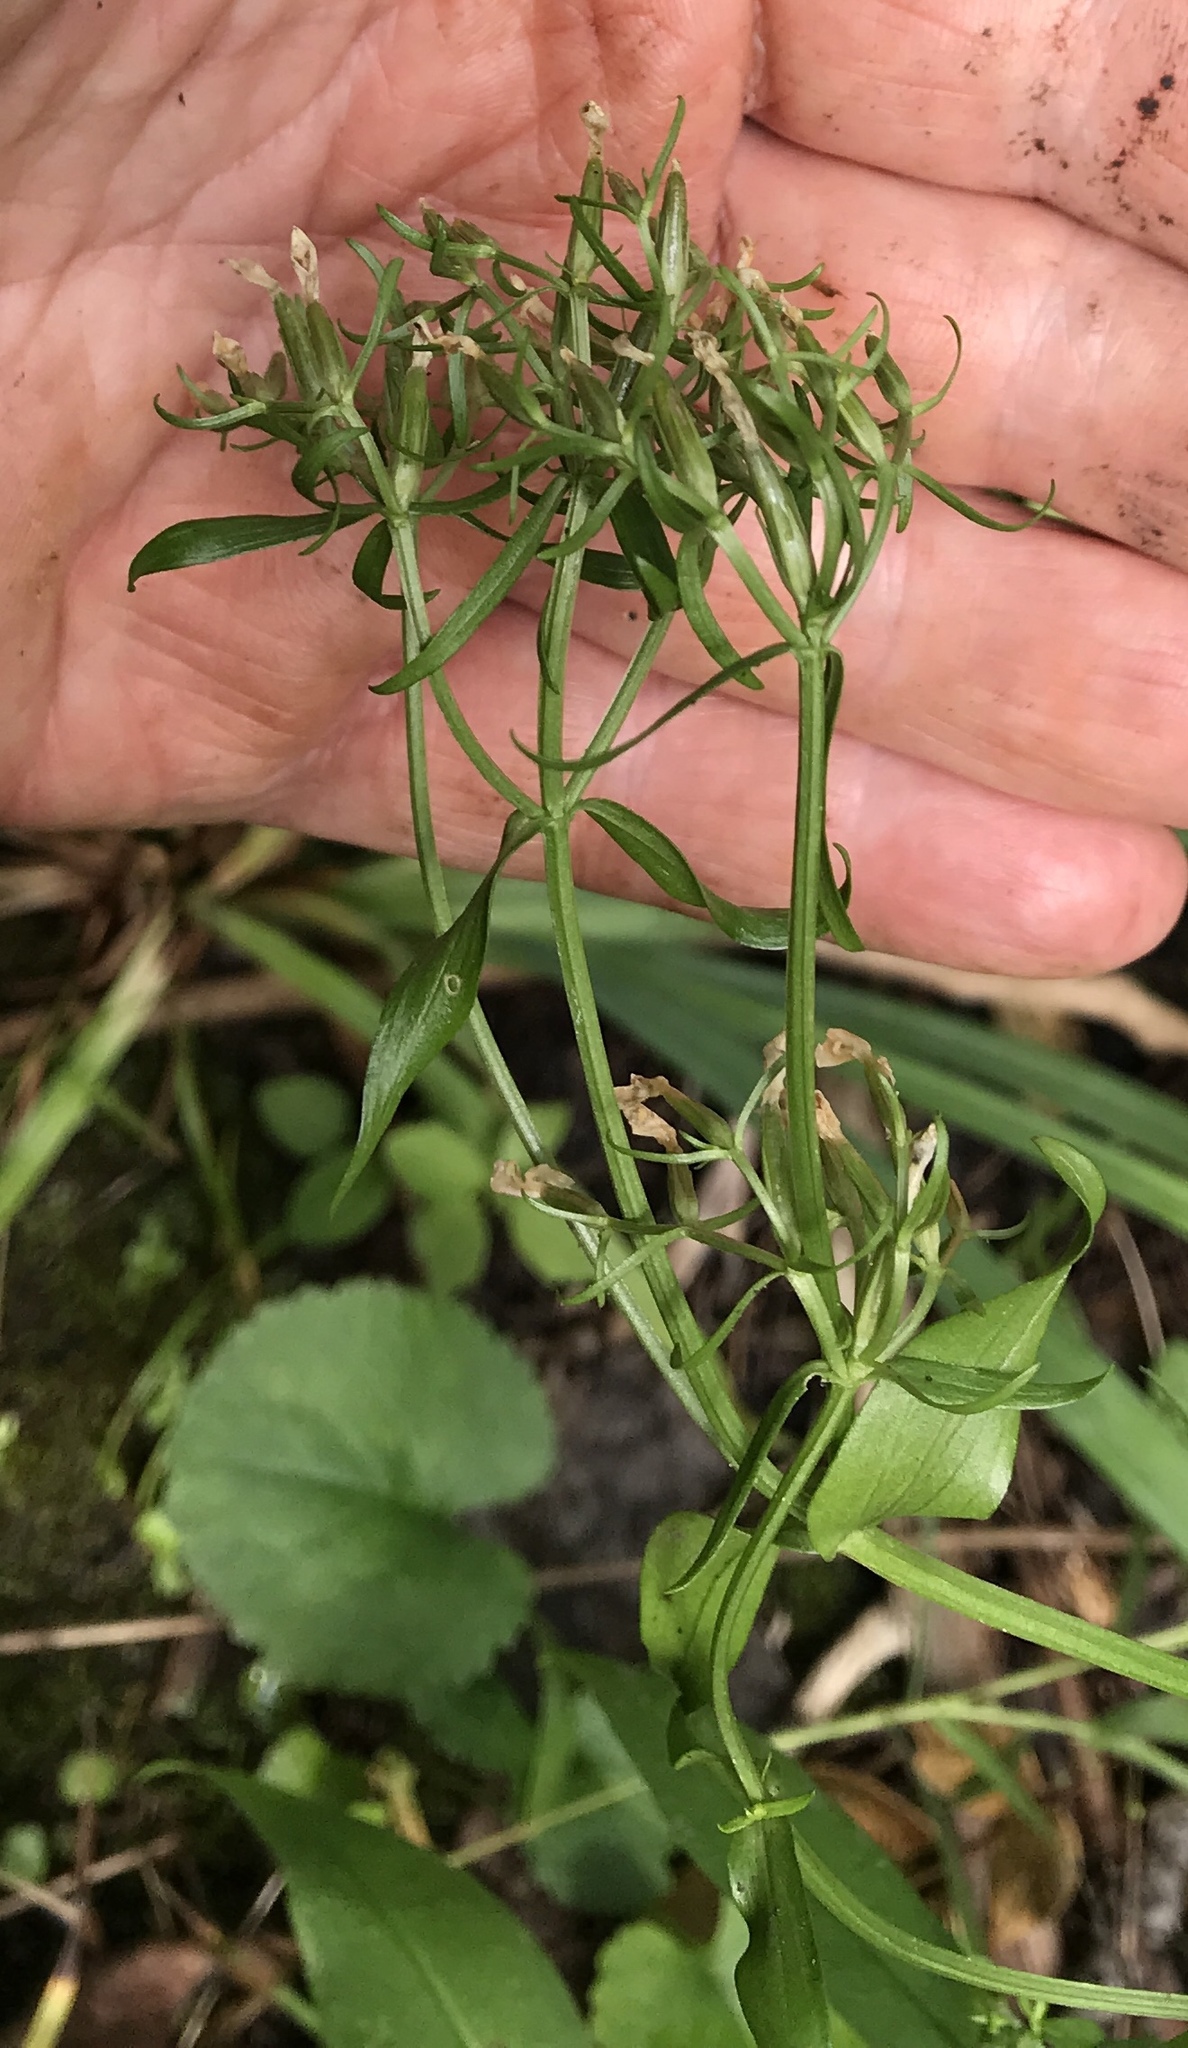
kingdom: Plantae
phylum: Tracheophyta
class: Magnoliopsida
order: Gentianales
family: Gentianaceae
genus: Centaurium
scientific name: Centaurium erythraea
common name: Common centaury
